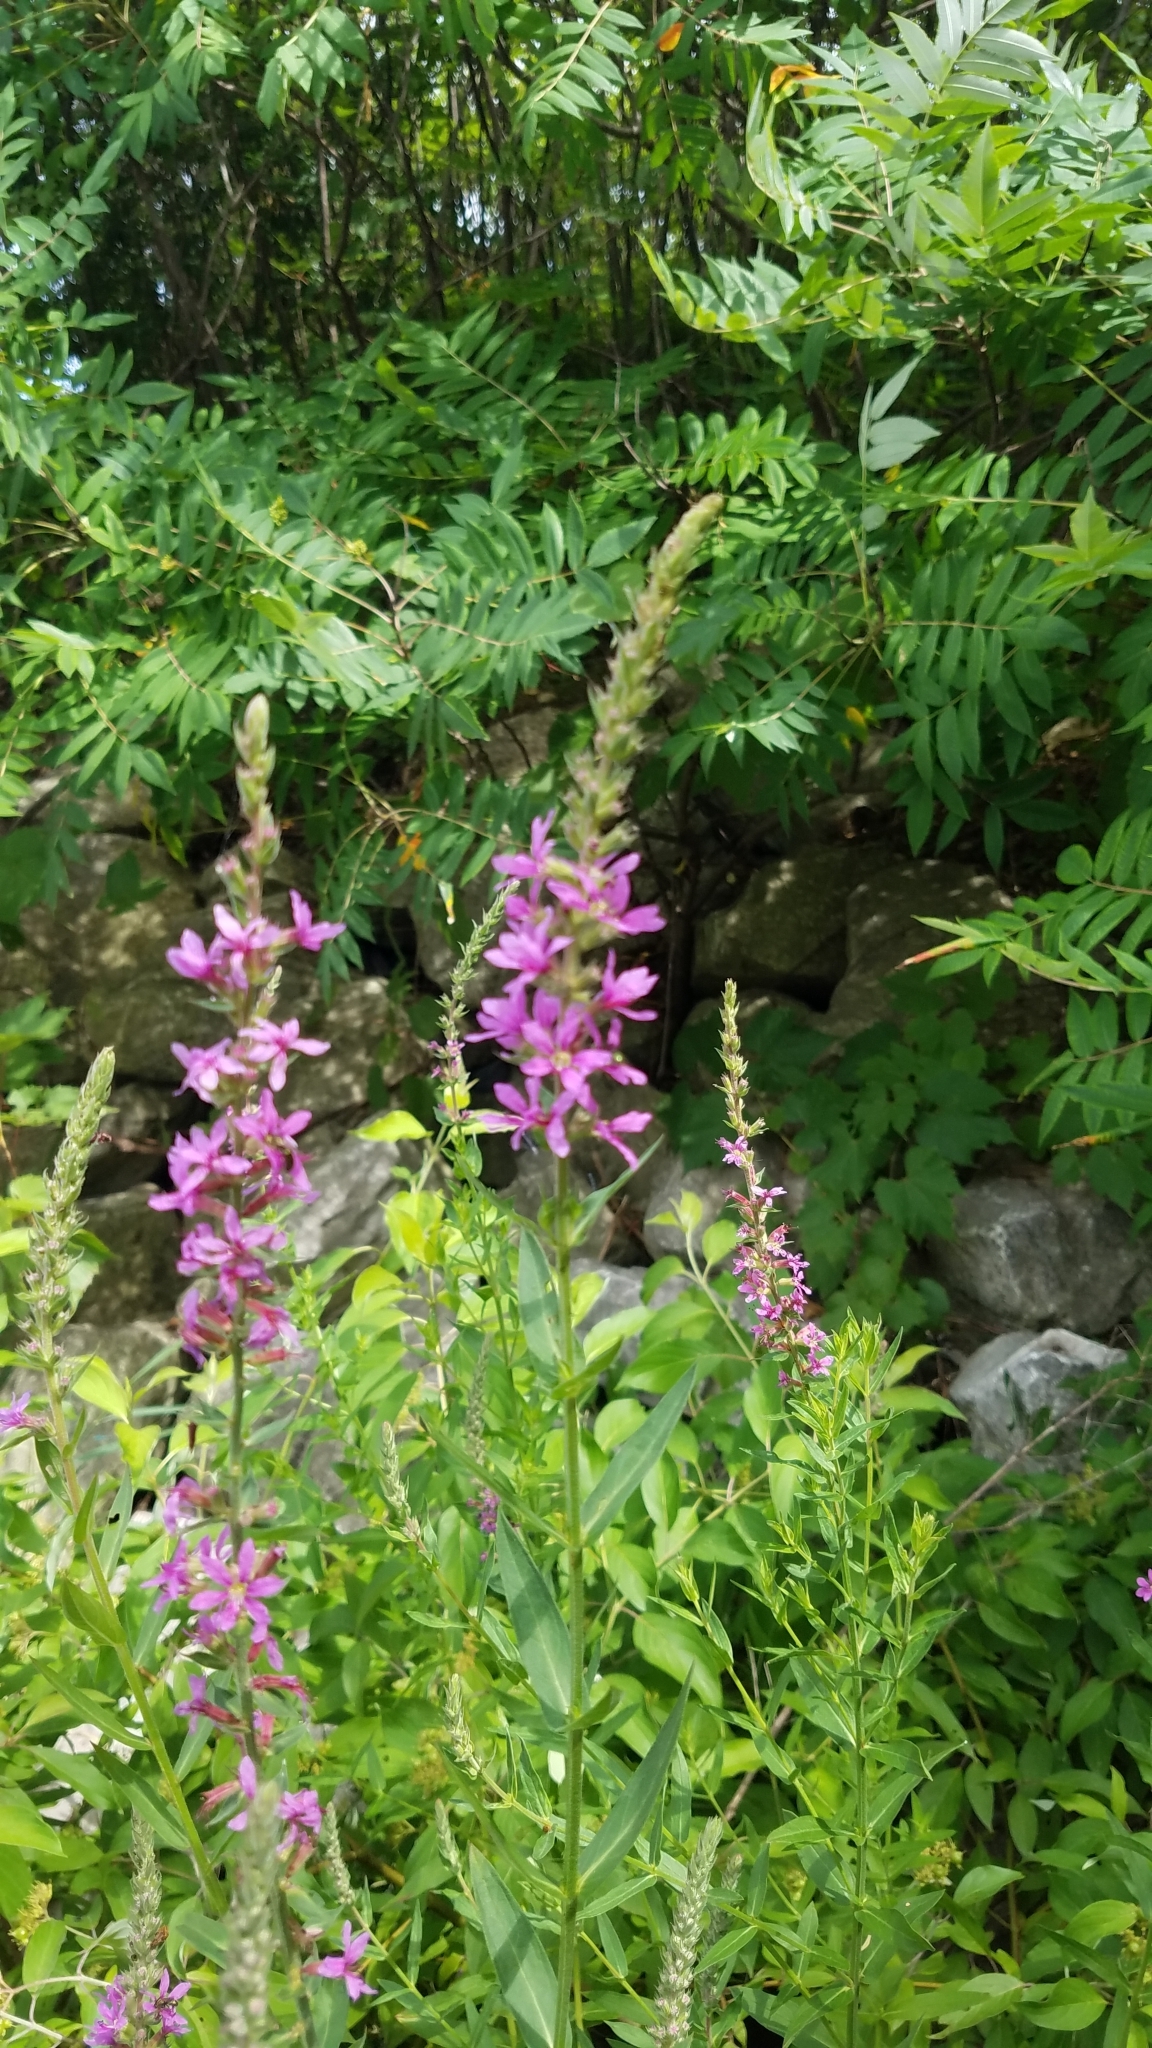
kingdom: Plantae
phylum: Tracheophyta
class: Magnoliopsida
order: Myrtales
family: Lythraceae
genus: Lythrum
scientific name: Lythrum salicaria
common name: Purple loosestrife
